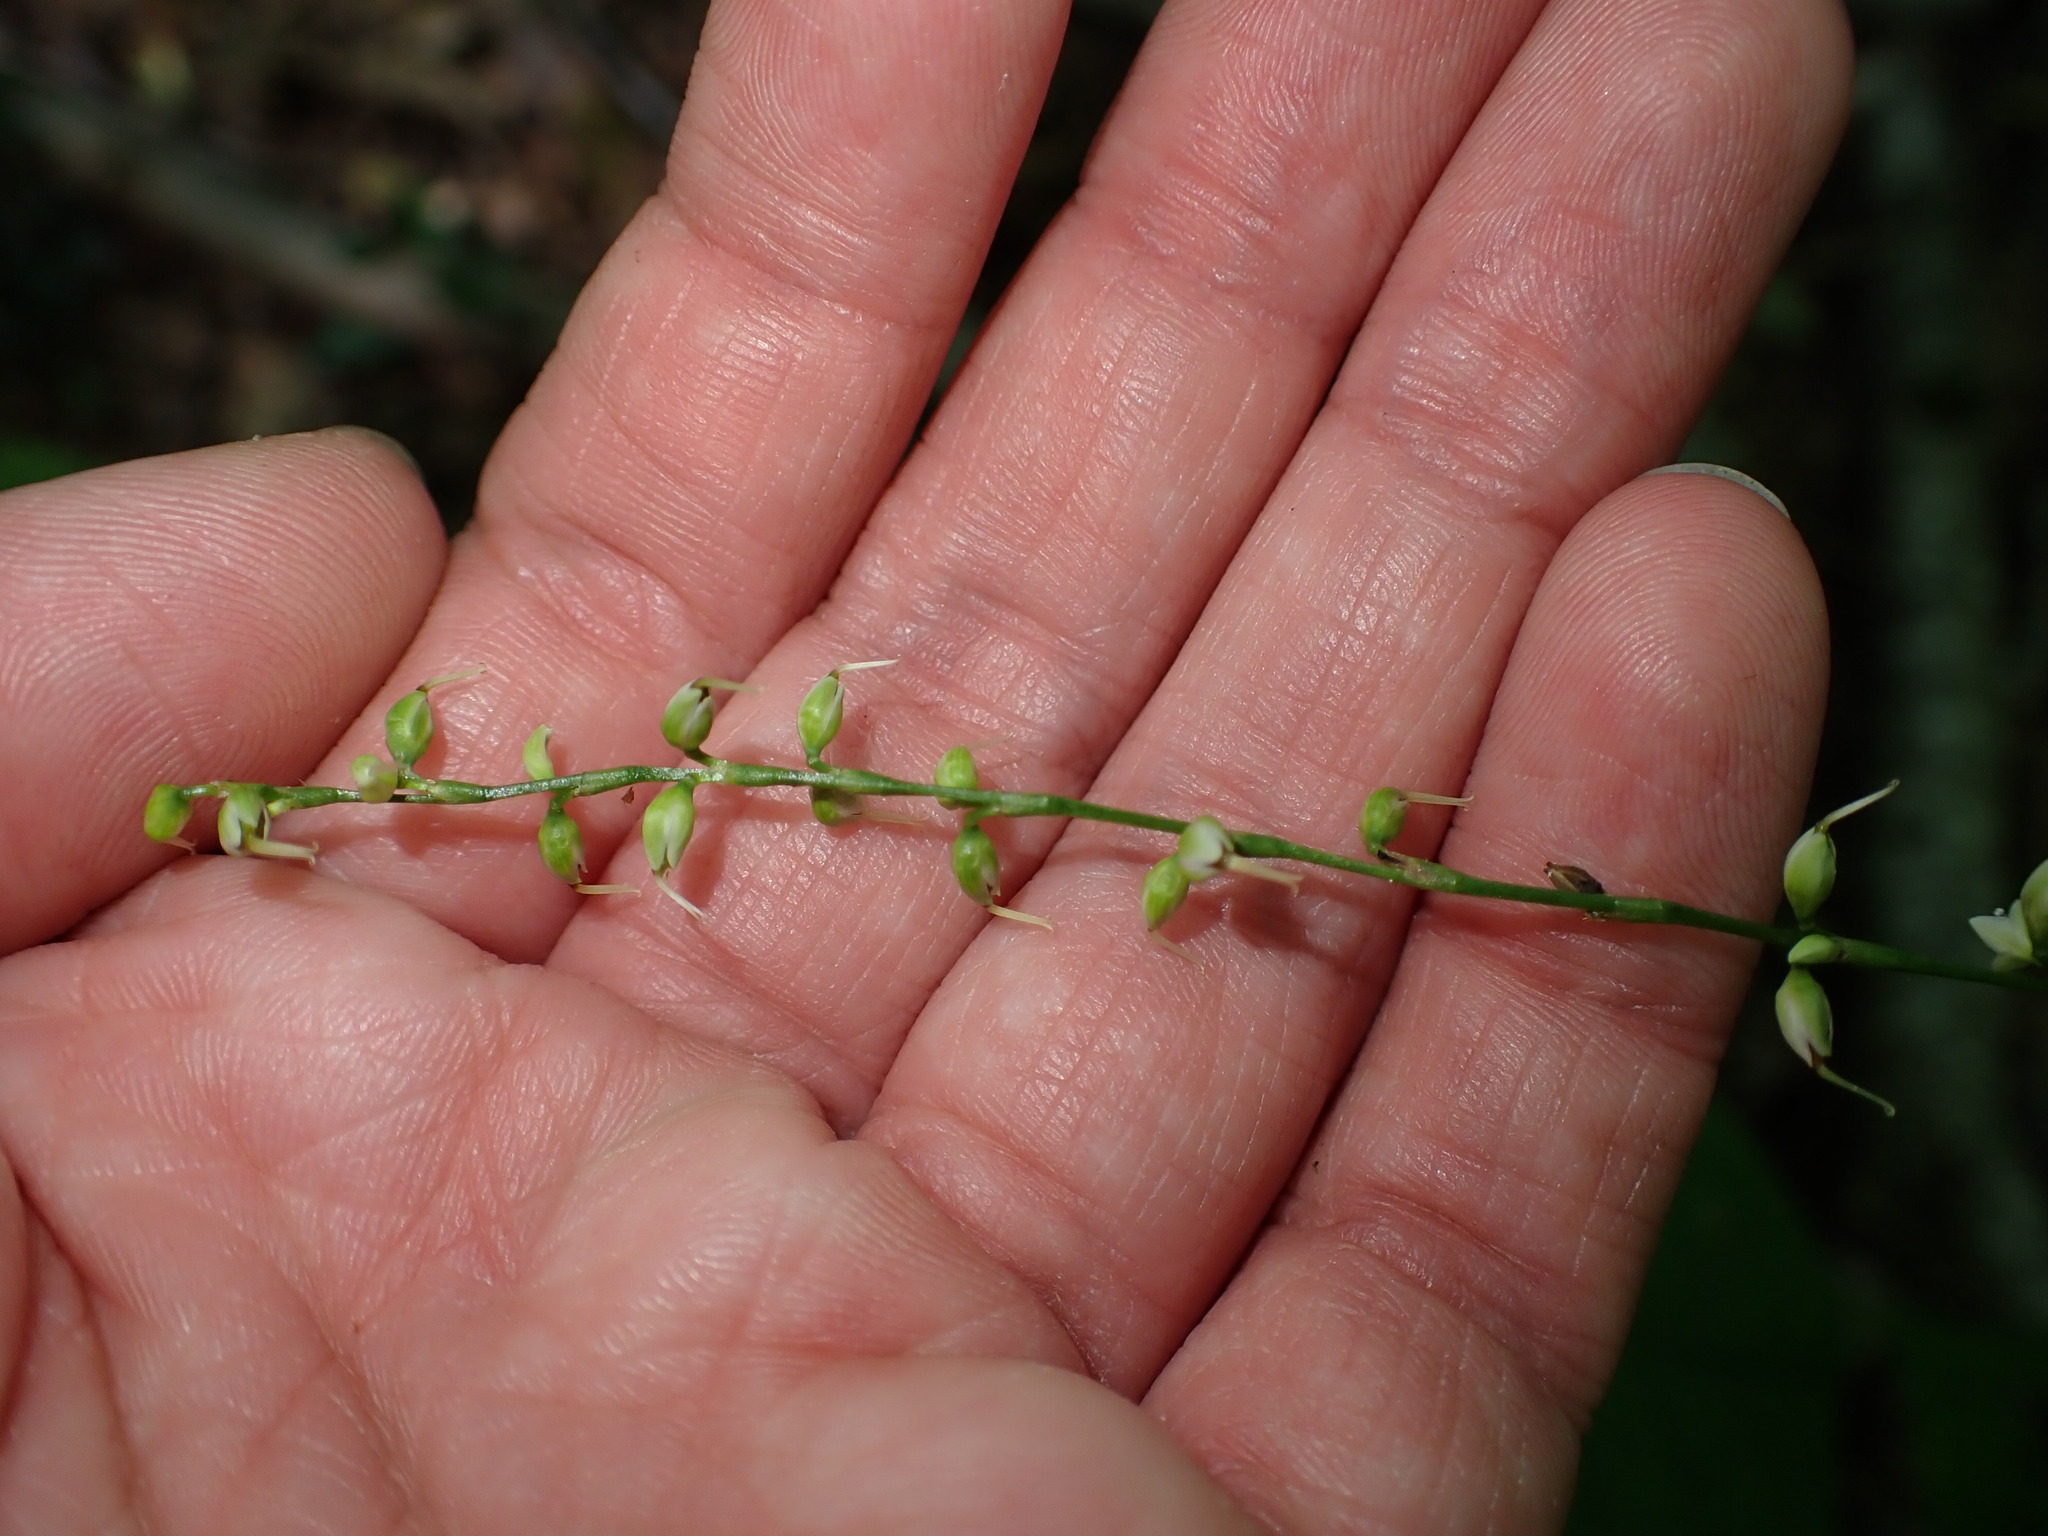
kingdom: Plantae
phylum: Tracheophyta
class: Magnoliopsida
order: Caryophyllales
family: Polygonaceae
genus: Persicaria
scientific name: Persicaria virginiana
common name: Jumpseed
